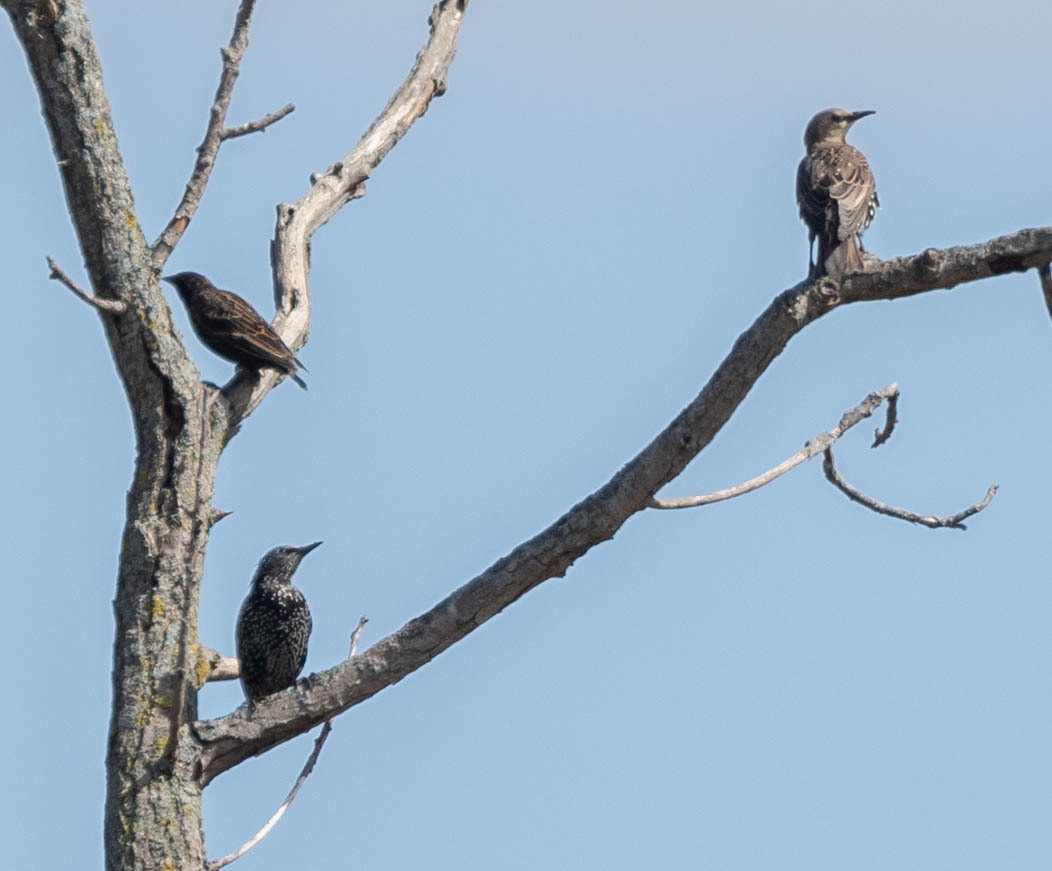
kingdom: Animalia
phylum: Chordata
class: Aves
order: Passeriformes
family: Sturnidae
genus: Sturnus
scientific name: Sturnus vulgaris
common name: Common starling
